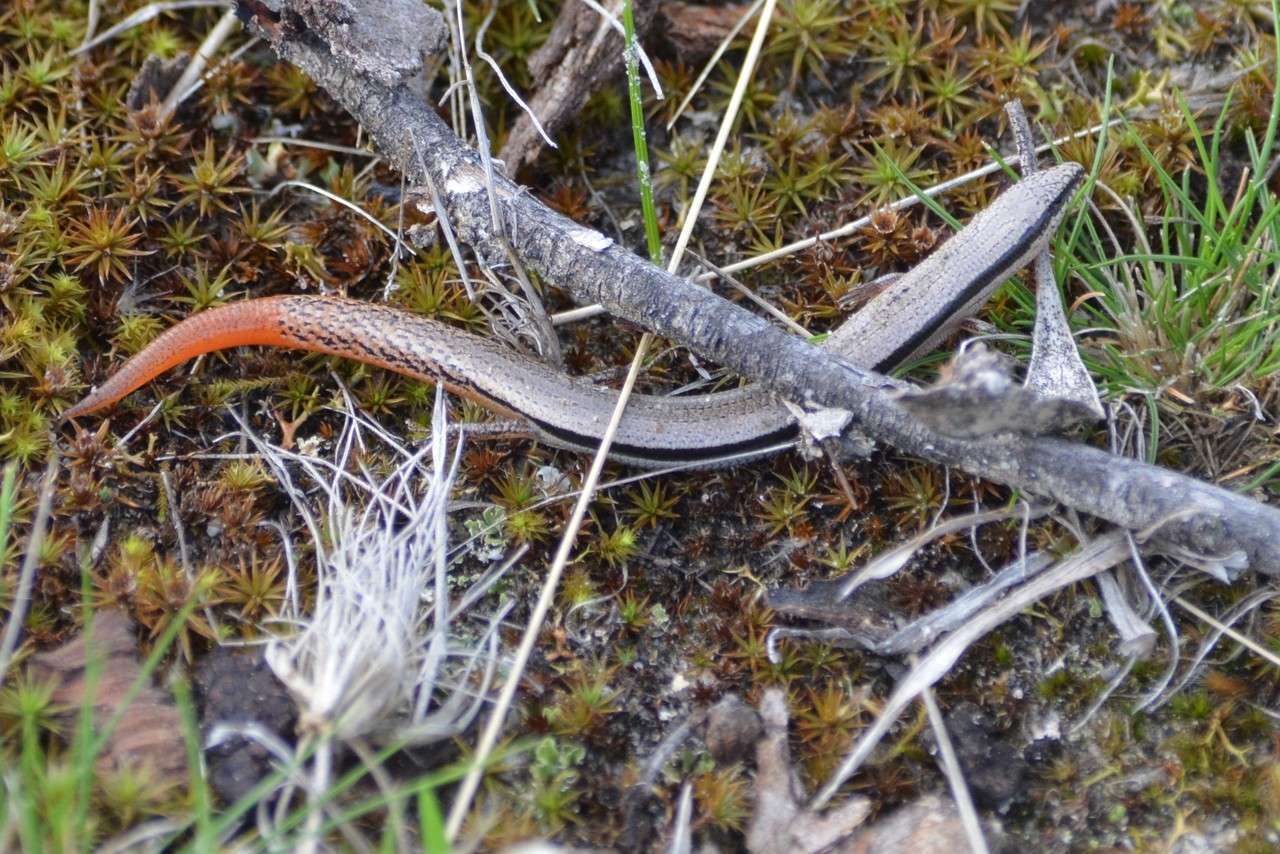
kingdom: Animalia
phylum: Chordata
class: Squamata
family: Scincidae
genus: Lerista
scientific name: Lerista bougainvillii
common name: South-eastern slider
